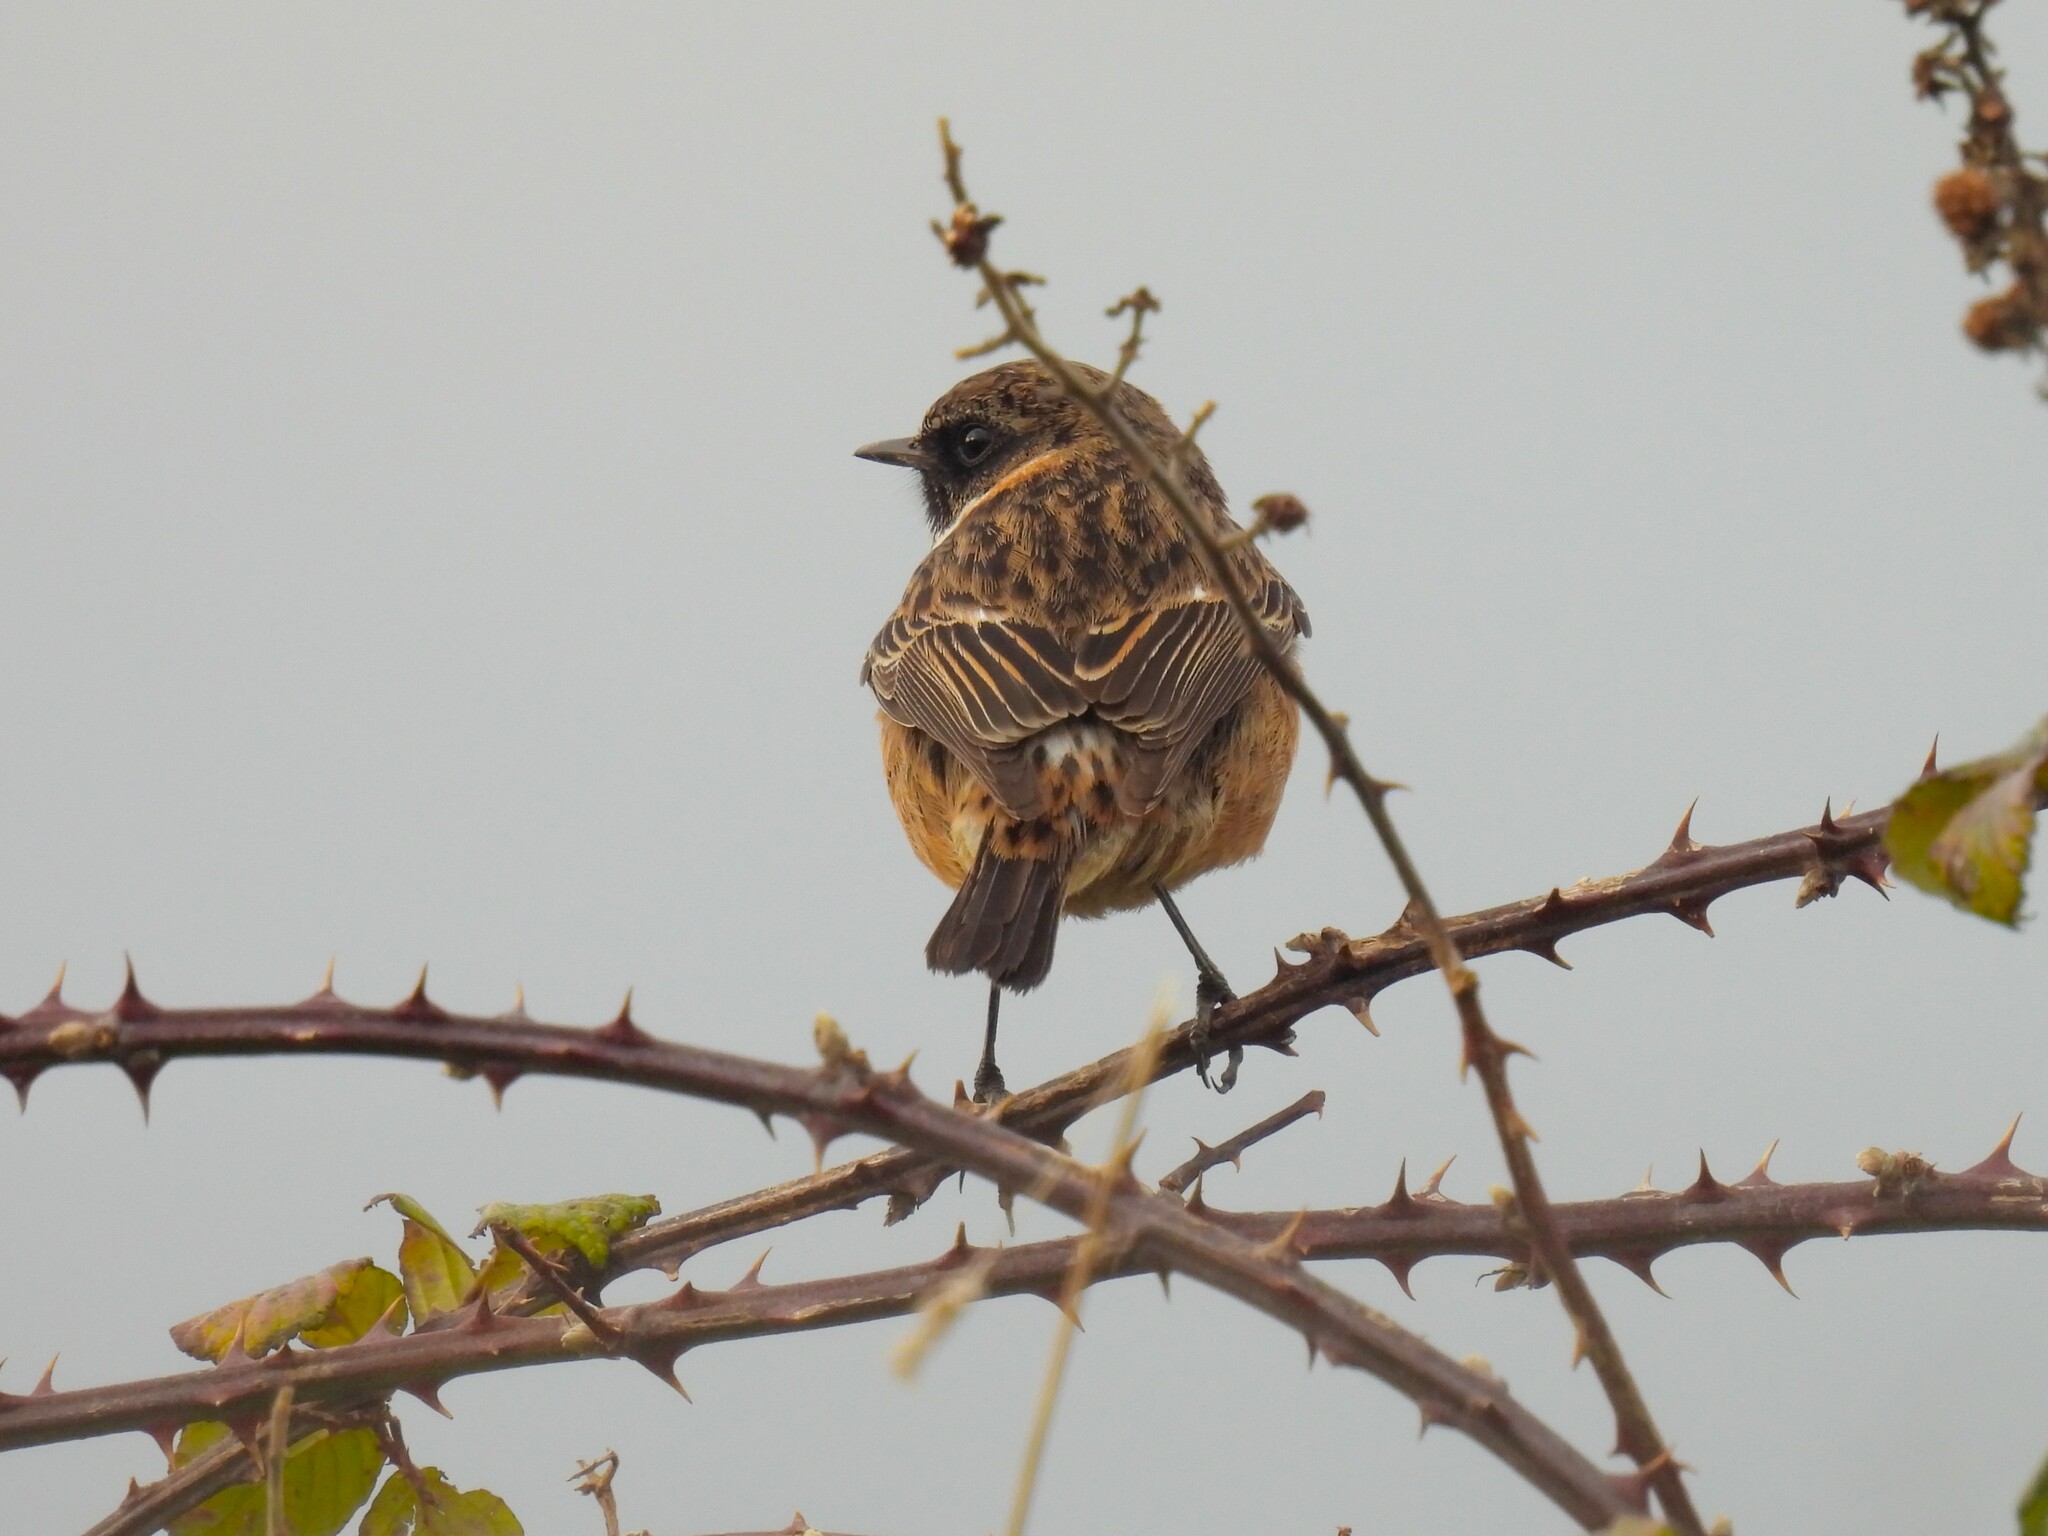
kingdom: Animalia
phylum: Chordata
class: Aves
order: Passeriformes
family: Muscicapidae
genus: Saxicola
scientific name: Saxicola rubicola
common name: European stonechat
